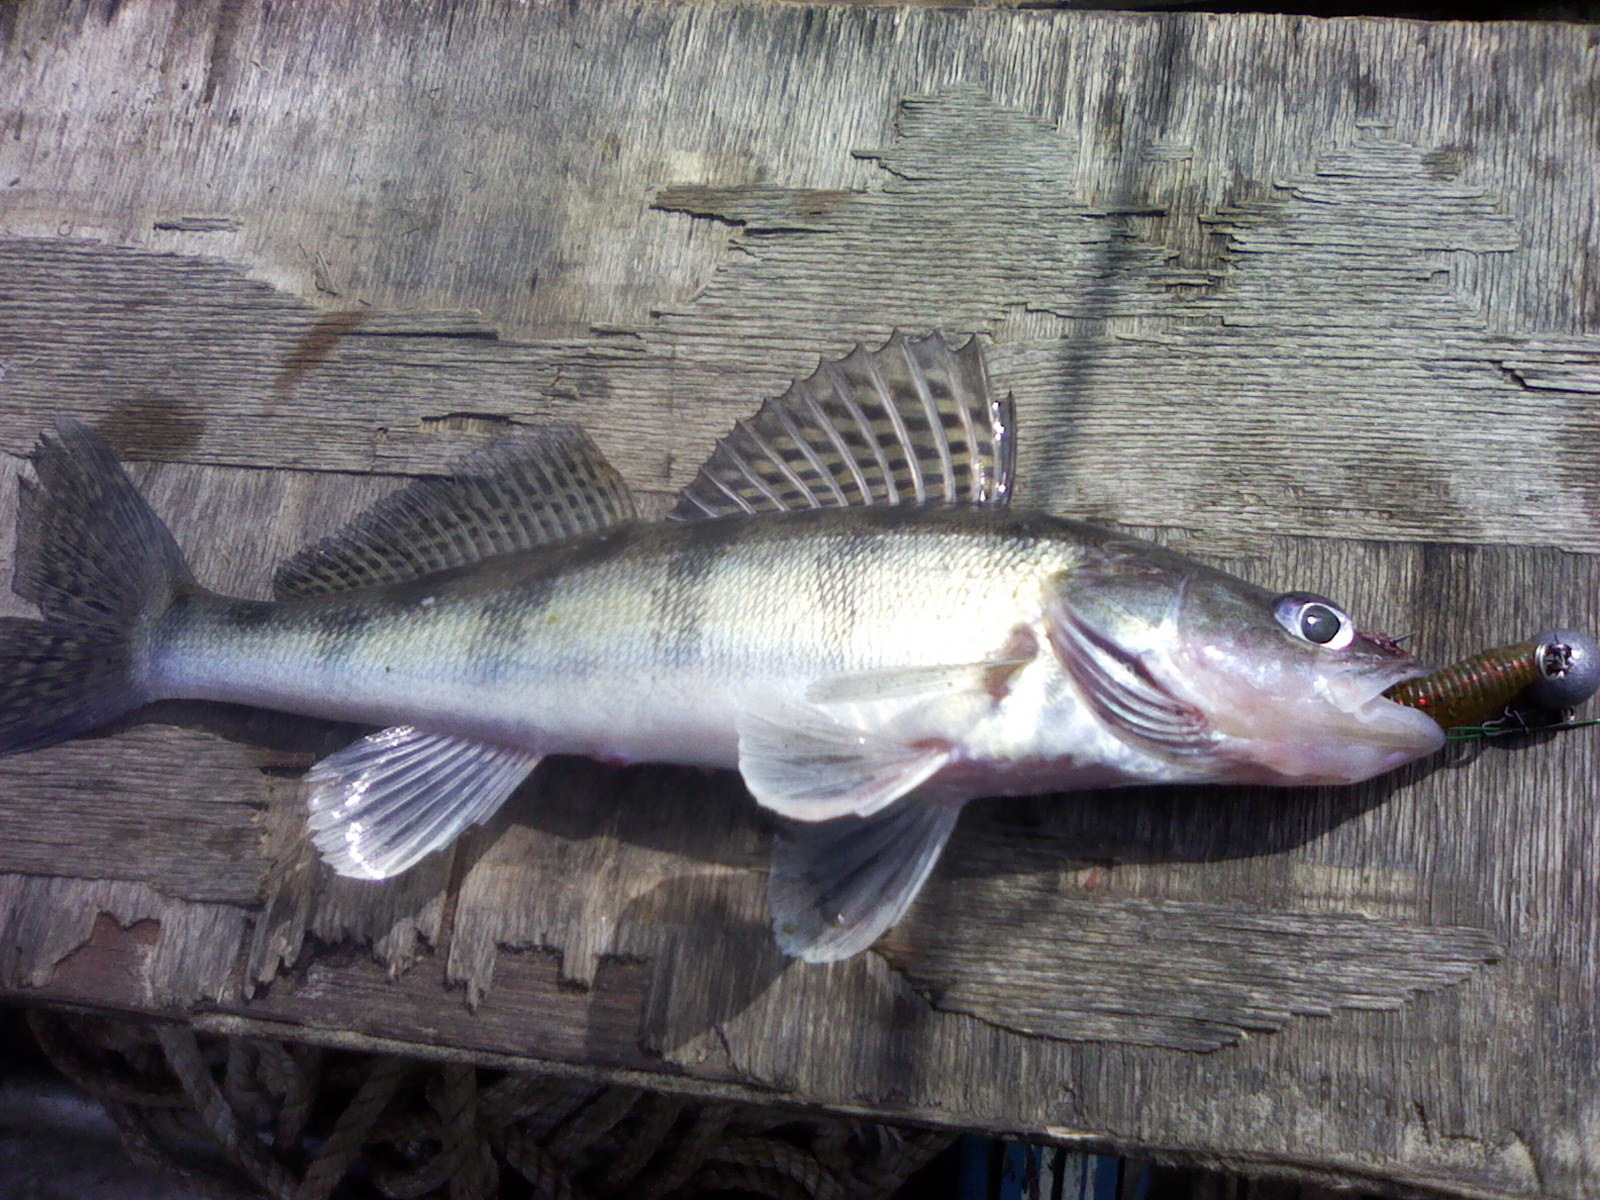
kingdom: Animalia
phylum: Chordata
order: Perciformes
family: Percidae
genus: Sander
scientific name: Sander volgensis
